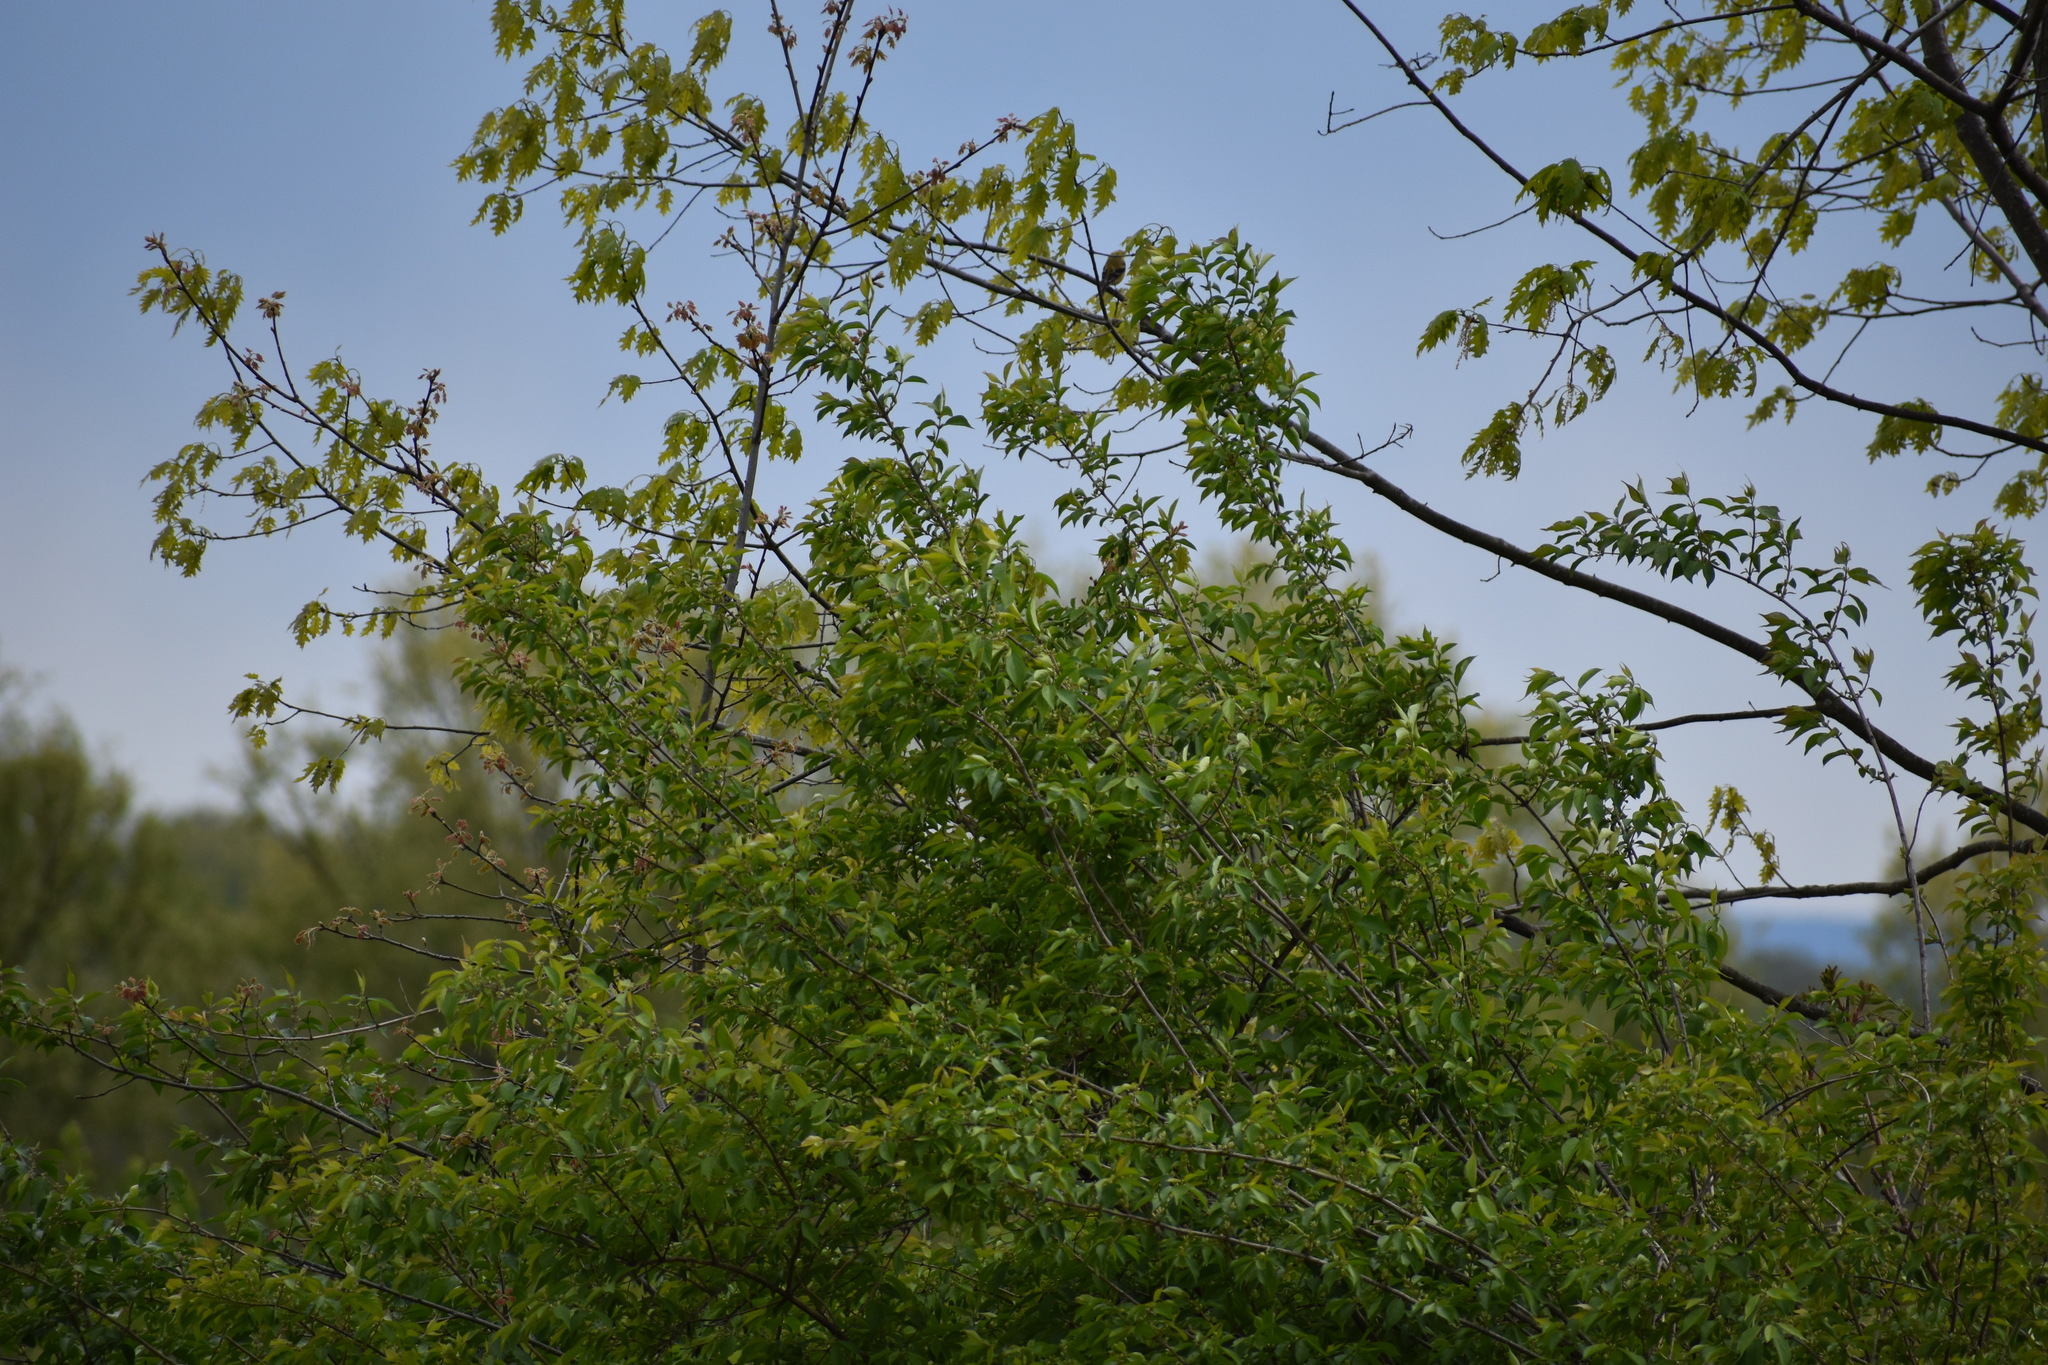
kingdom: Animalia
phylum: Chordata
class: Aves
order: Passeriformes
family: Fringillidae
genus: Spinus
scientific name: Spinus tristis
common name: American goldfinch
